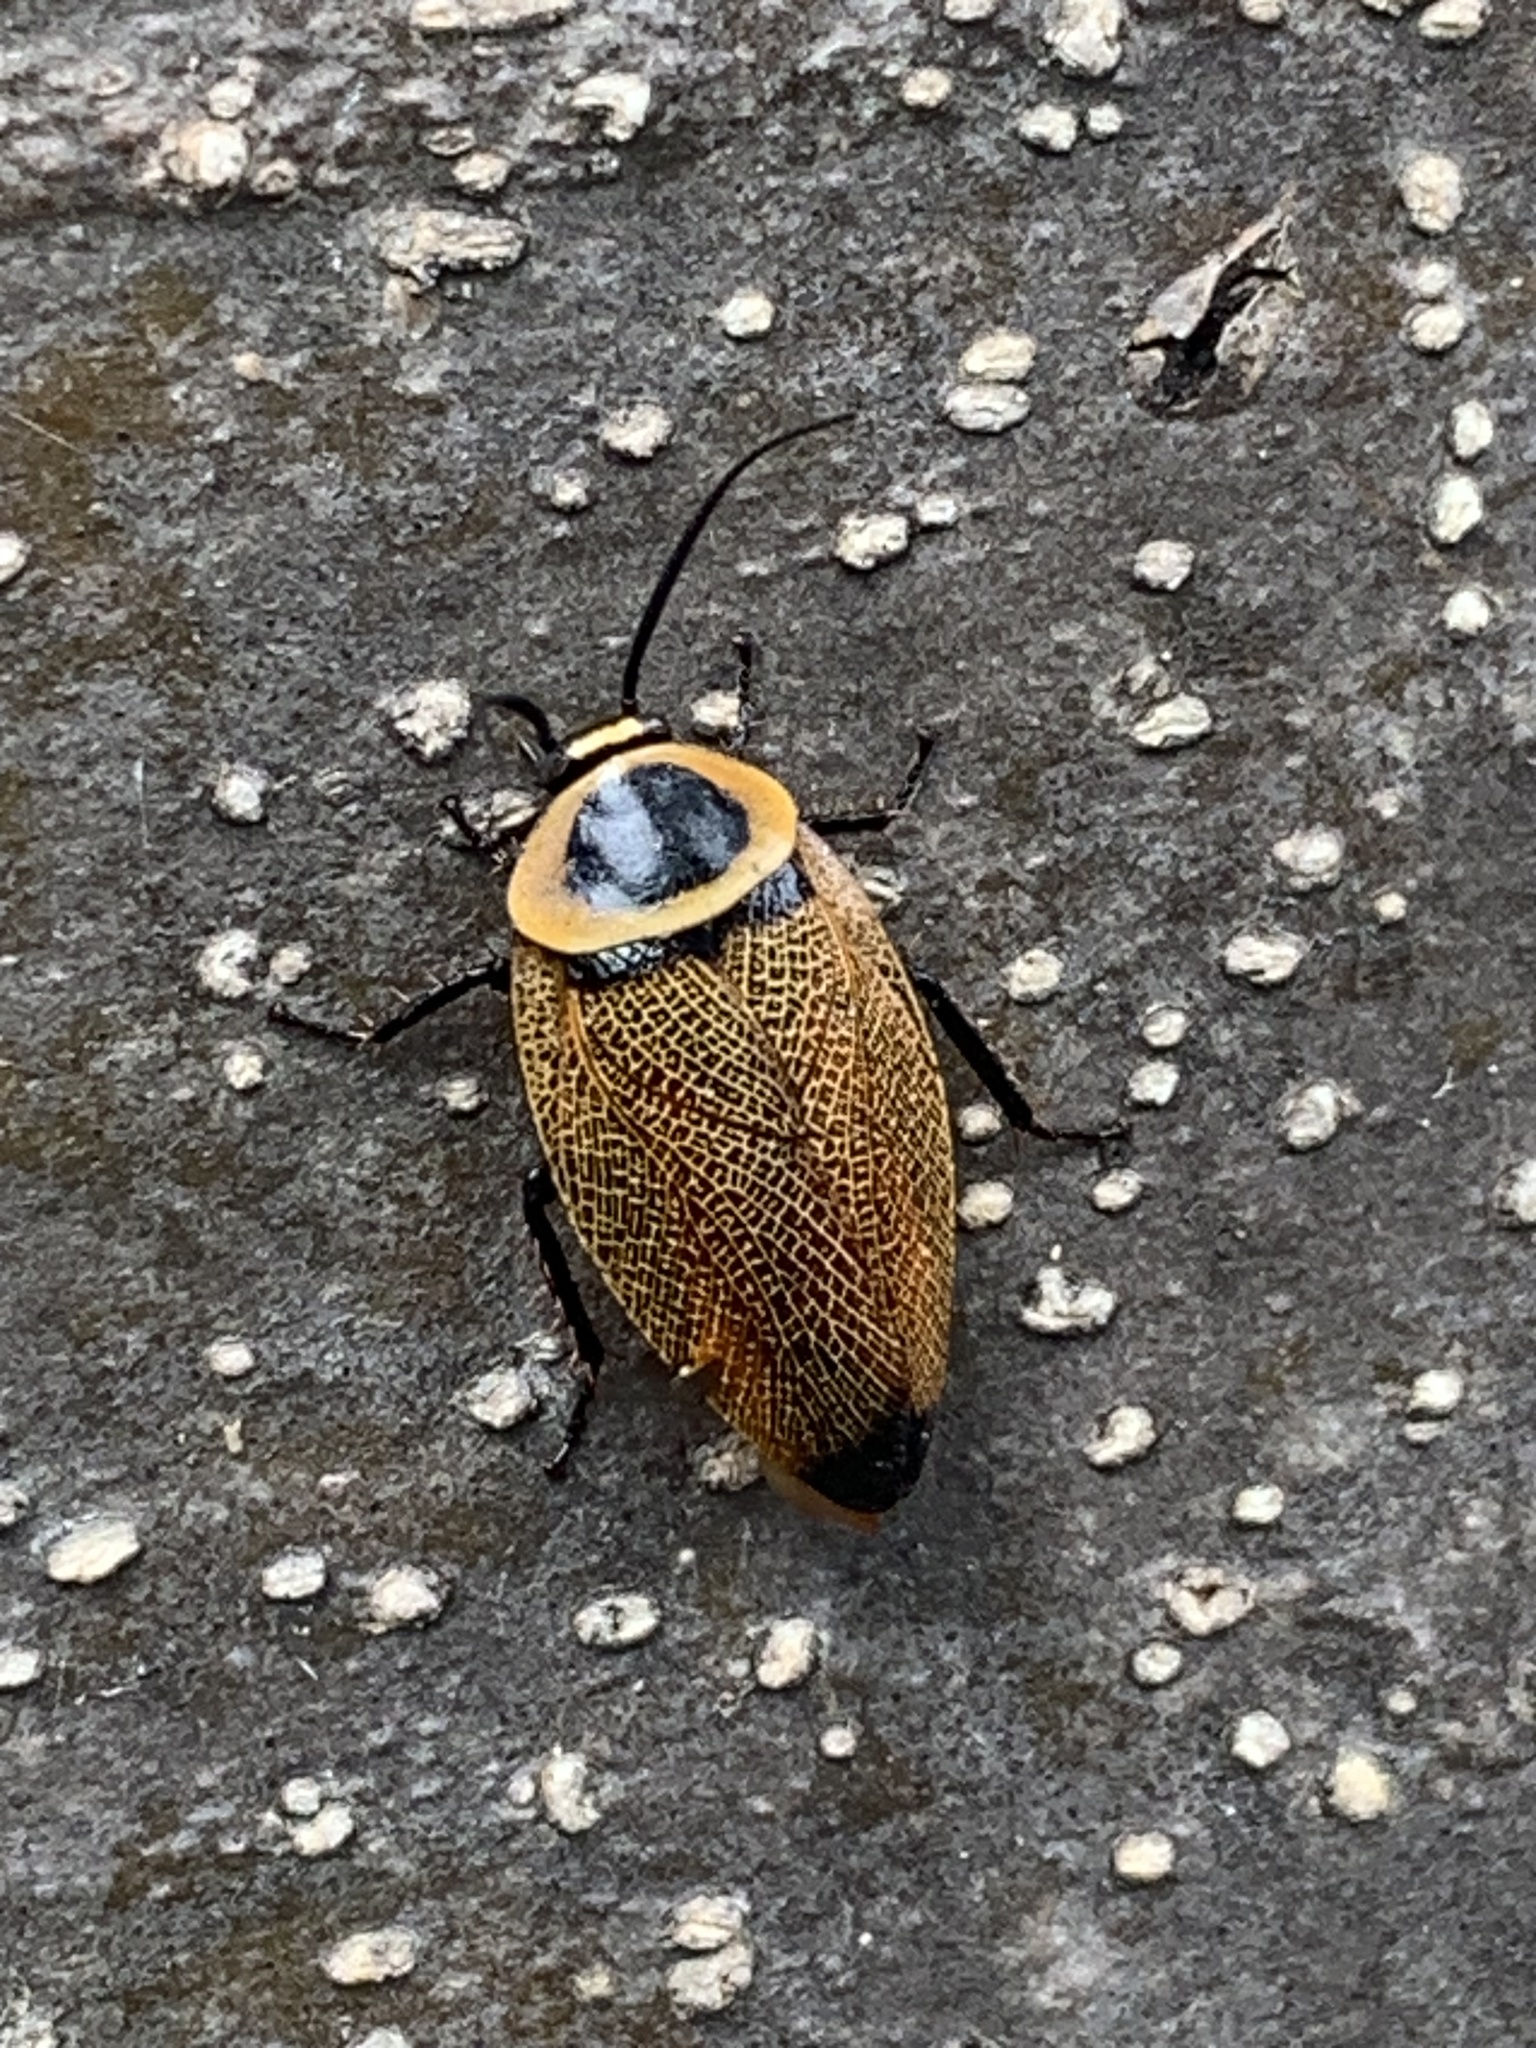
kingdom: Animalia
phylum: Arthropoda
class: Insecta
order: Blattodea
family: Ectobiidae
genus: Ellipsidion
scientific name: Ellipsidion australe
